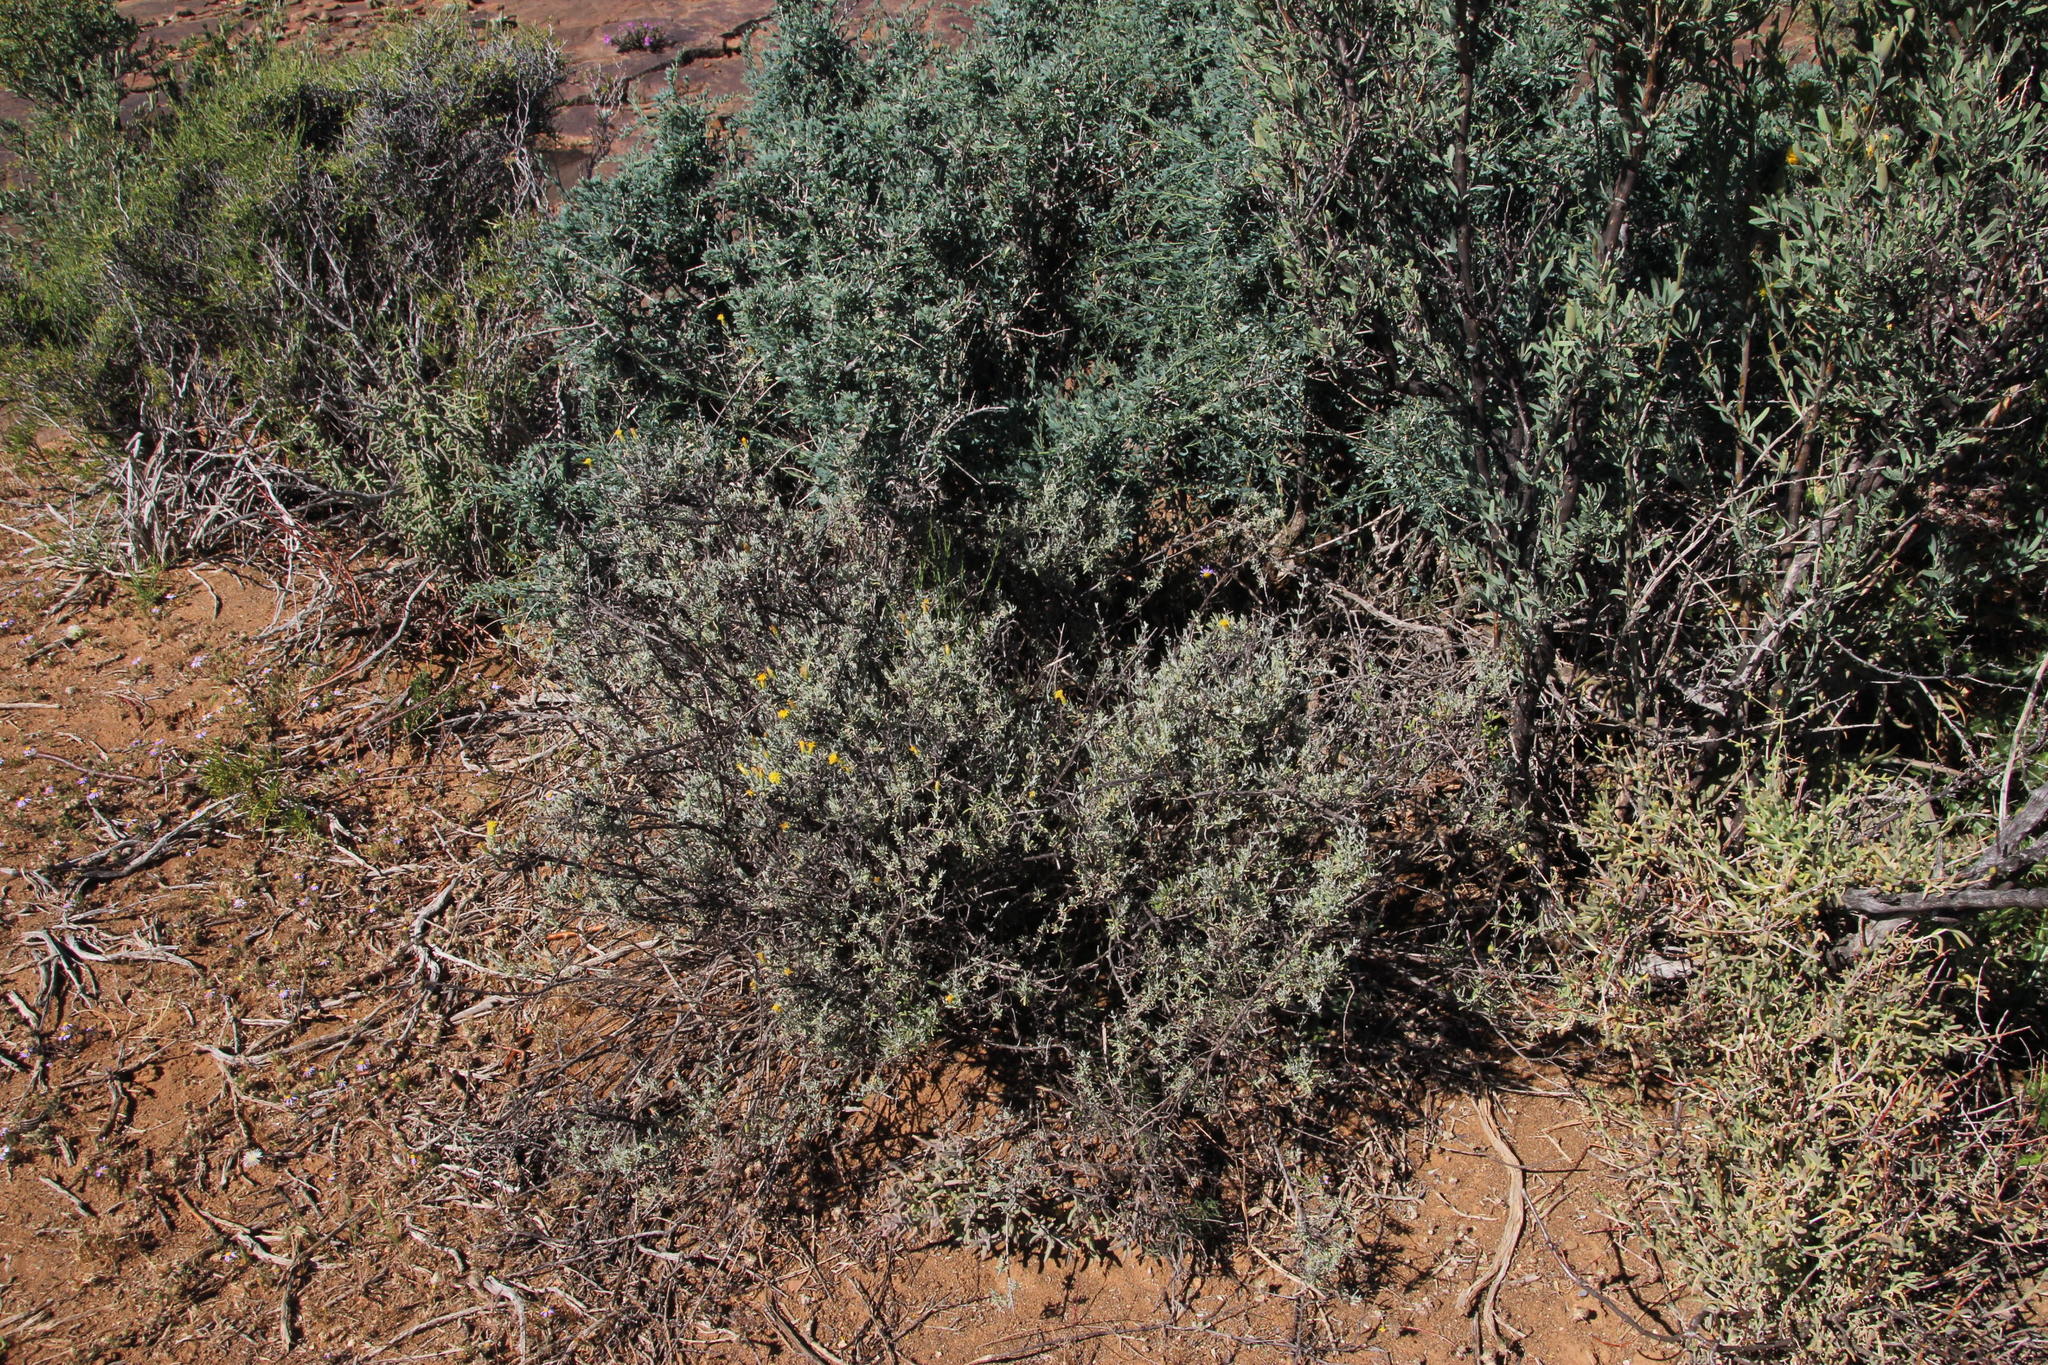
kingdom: Plantae
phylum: Tracheophyta
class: Magnoliopsida
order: Asterales
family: Asteraceae
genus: Pteronia
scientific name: Pteronia incana
